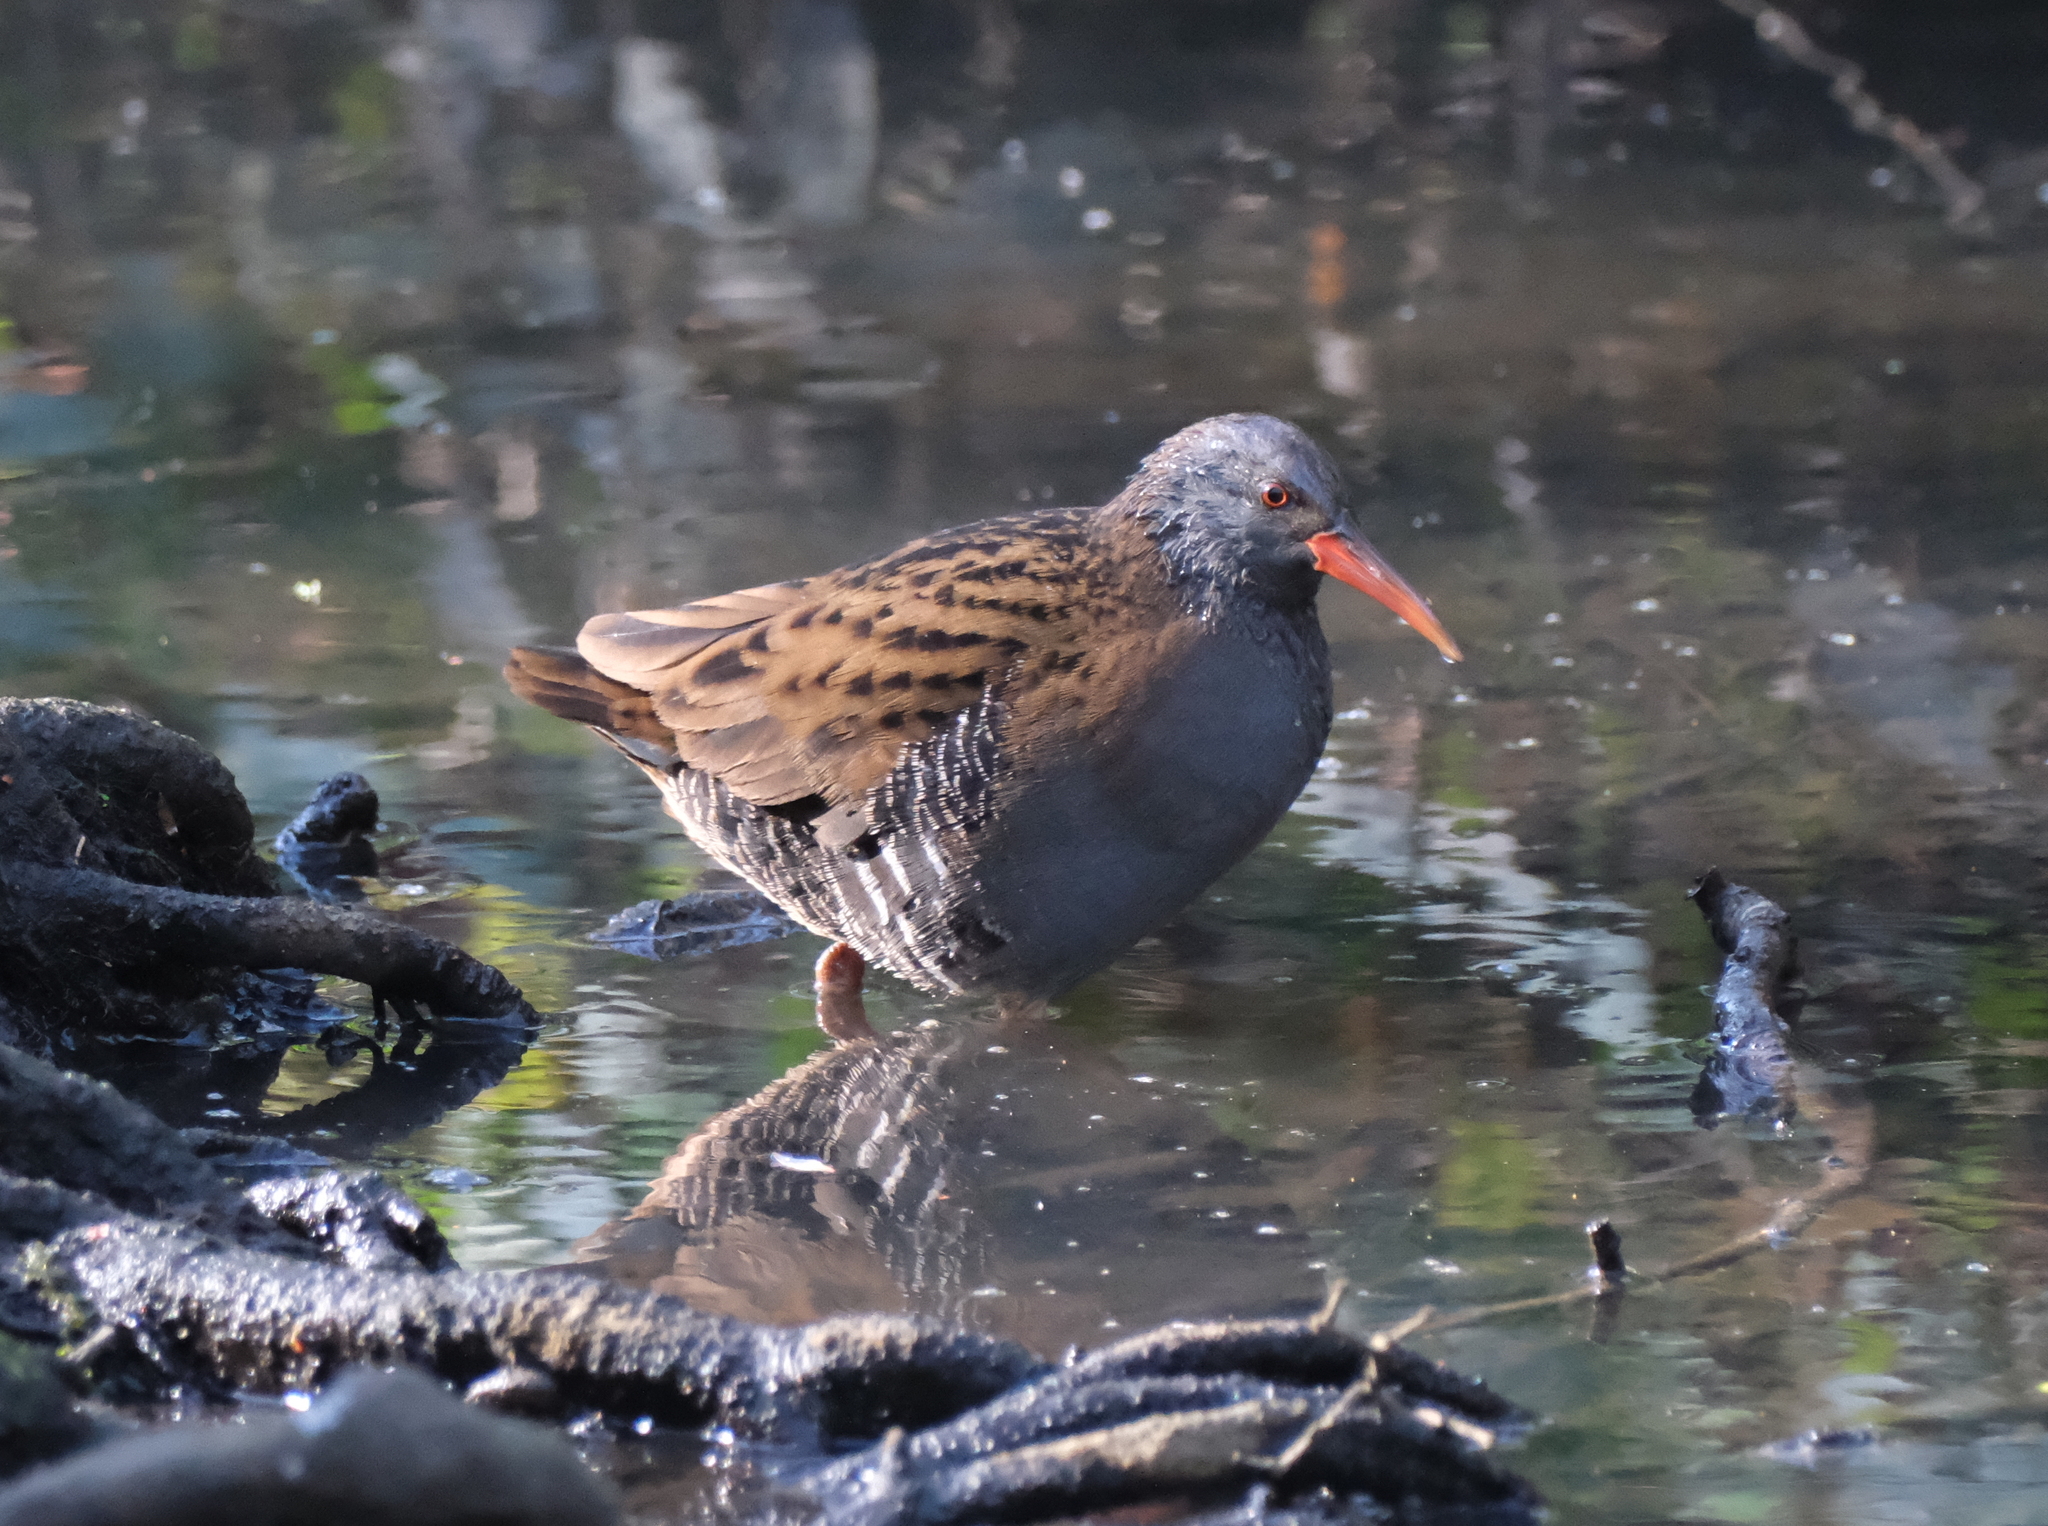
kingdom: Animalia
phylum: Chordata
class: Aves
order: Gruiformes
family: Rallidae
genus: Rallus
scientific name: Rallus aquaticus
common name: Water rail
